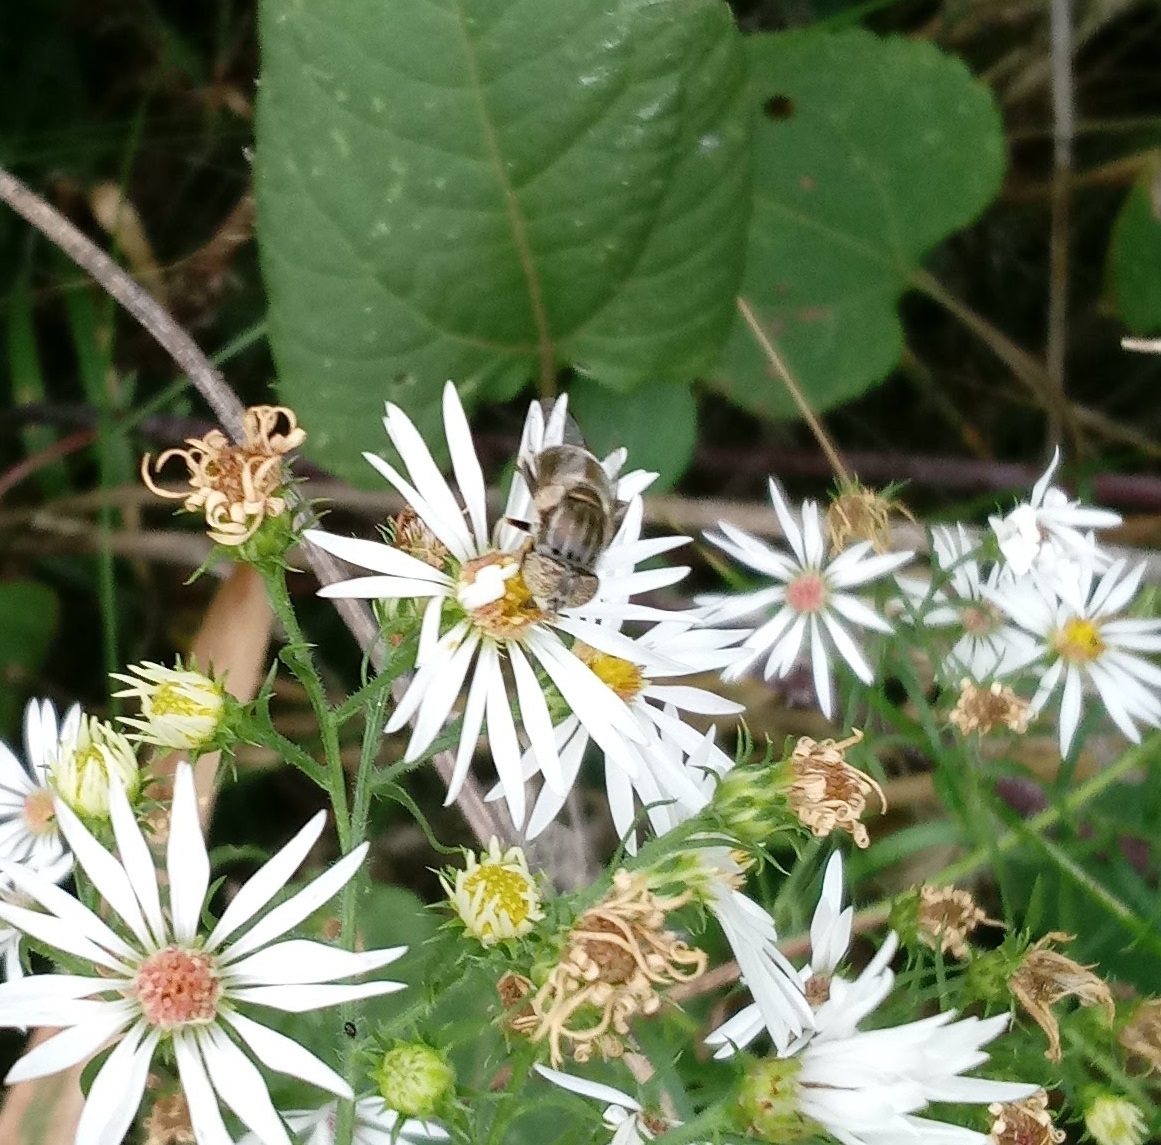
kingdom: Animalia
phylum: Arthropoda
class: Insecta
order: Diptera
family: Syrphidae
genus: Eristalinus
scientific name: Eristalinus aeneus
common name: Syrphid fly
